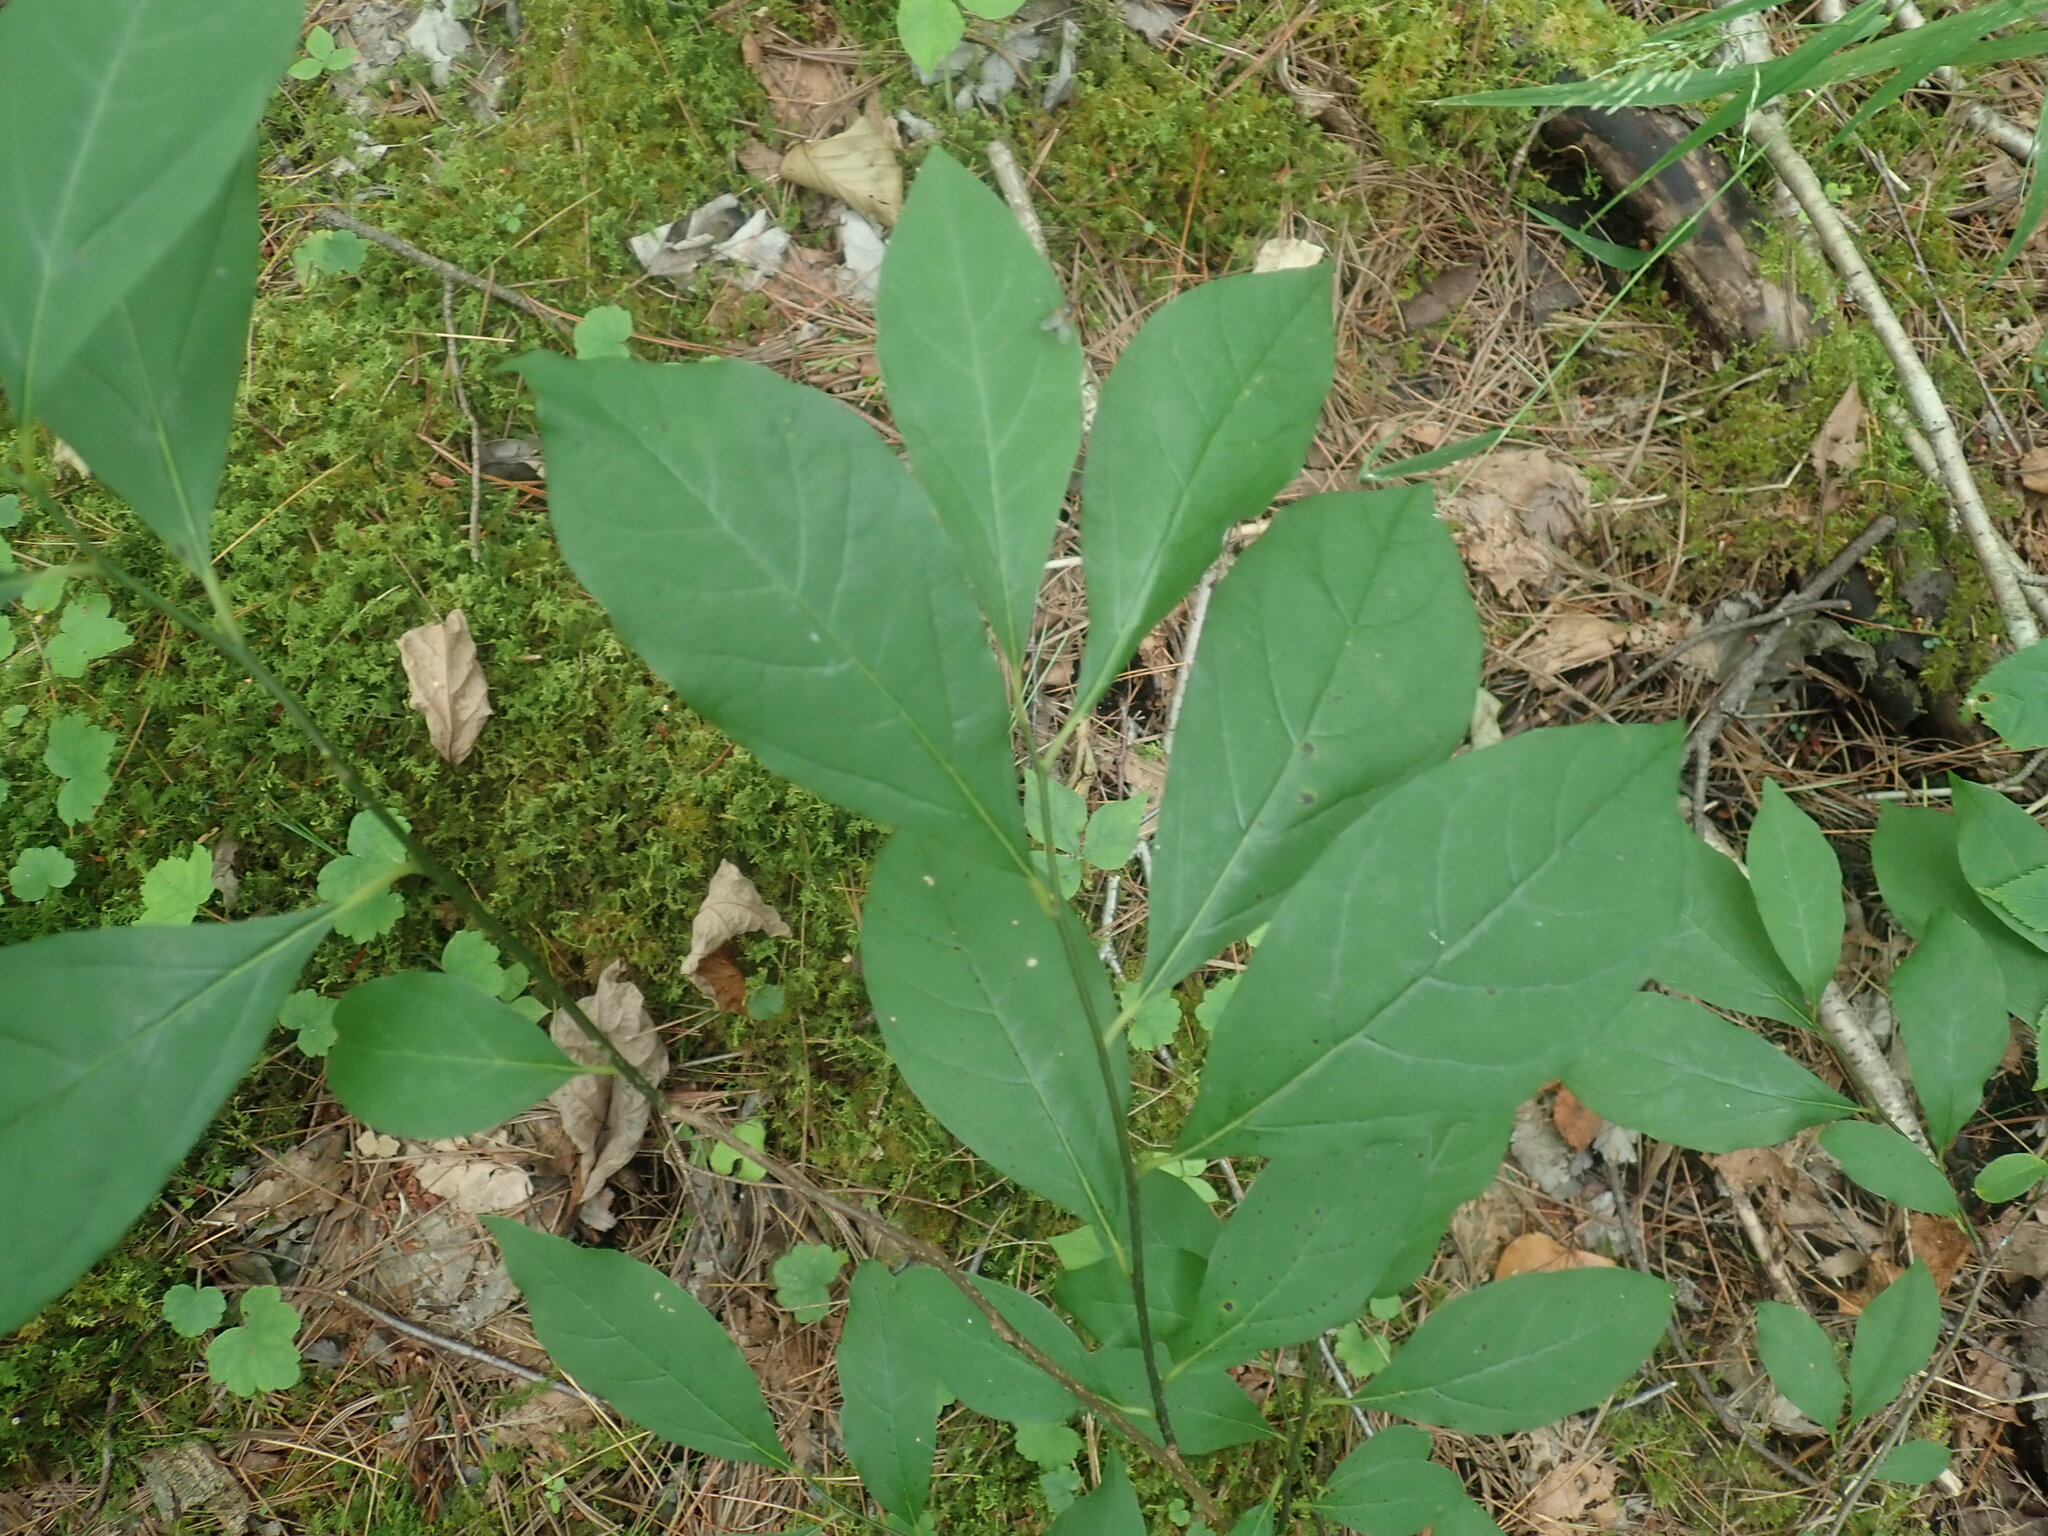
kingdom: Plantae
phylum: Tracheophyta
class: Magnoliopsida
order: Laurales
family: Lauraceae
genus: Lindera
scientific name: Lindera benzoin
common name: Spicebush
